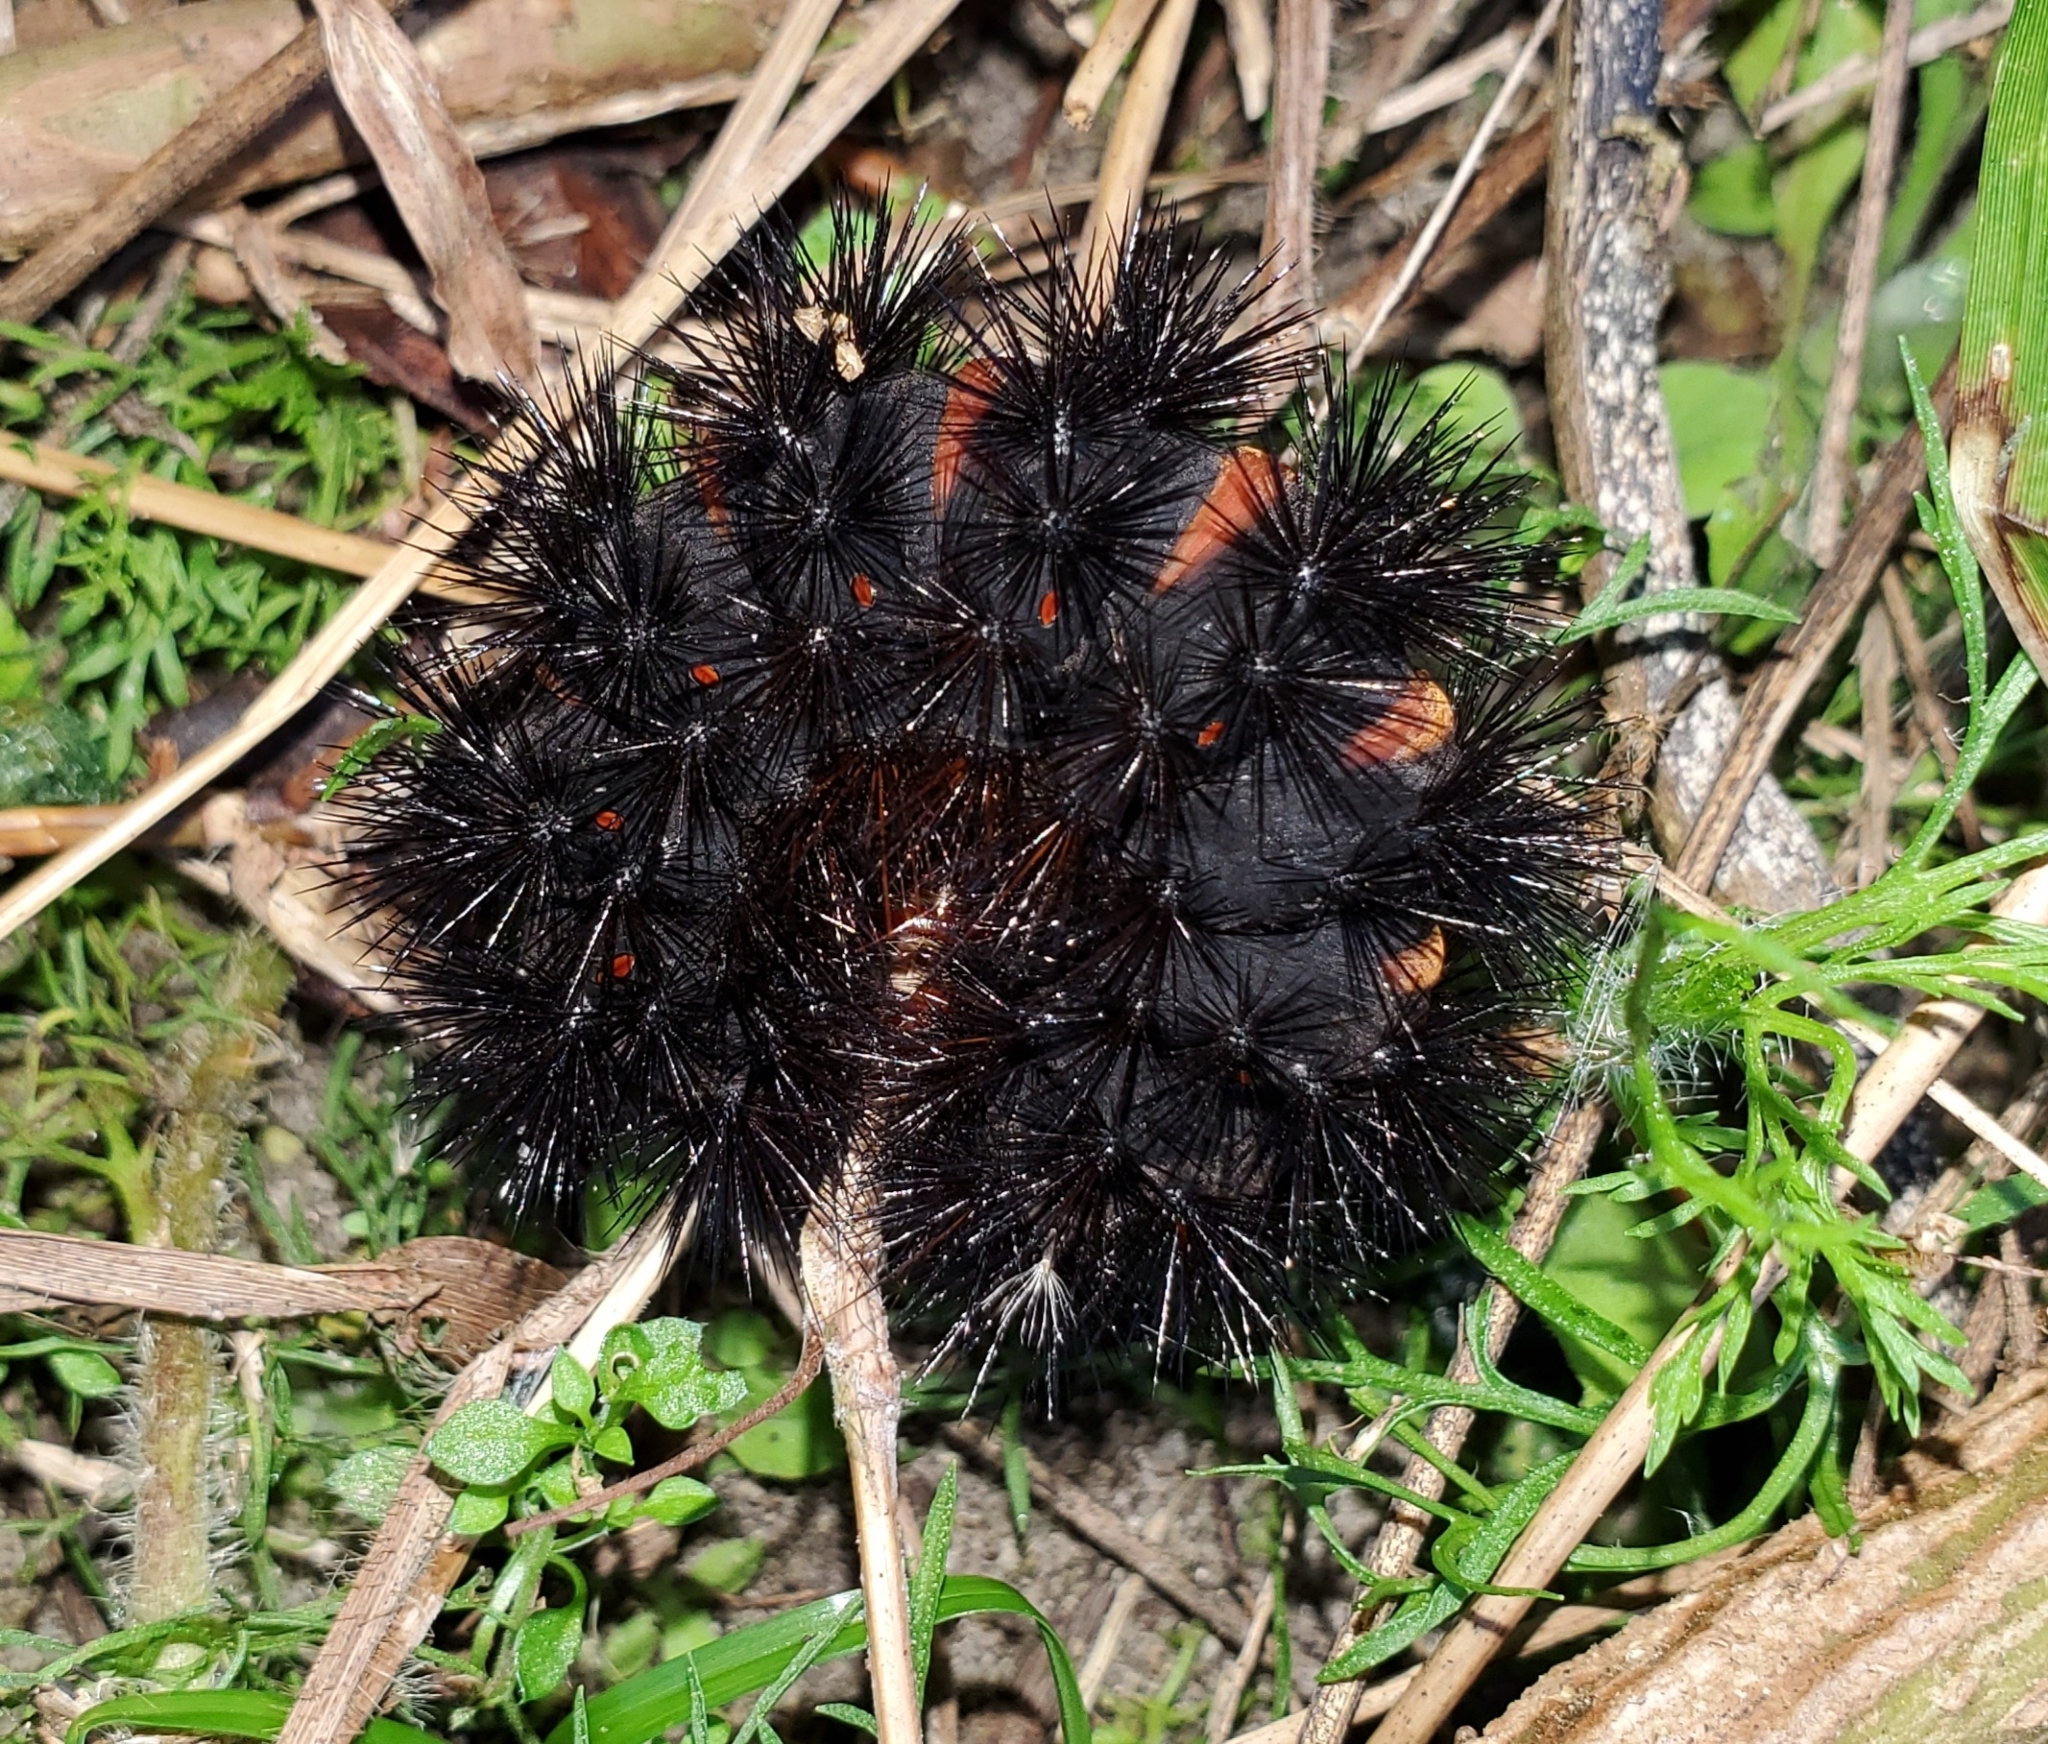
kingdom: Animalia
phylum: Arthropoda
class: Insecta
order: Lepidoptera
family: Erebidae
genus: Hypercompe
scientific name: Hypercompe scribonia
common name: Giant leopard moth
